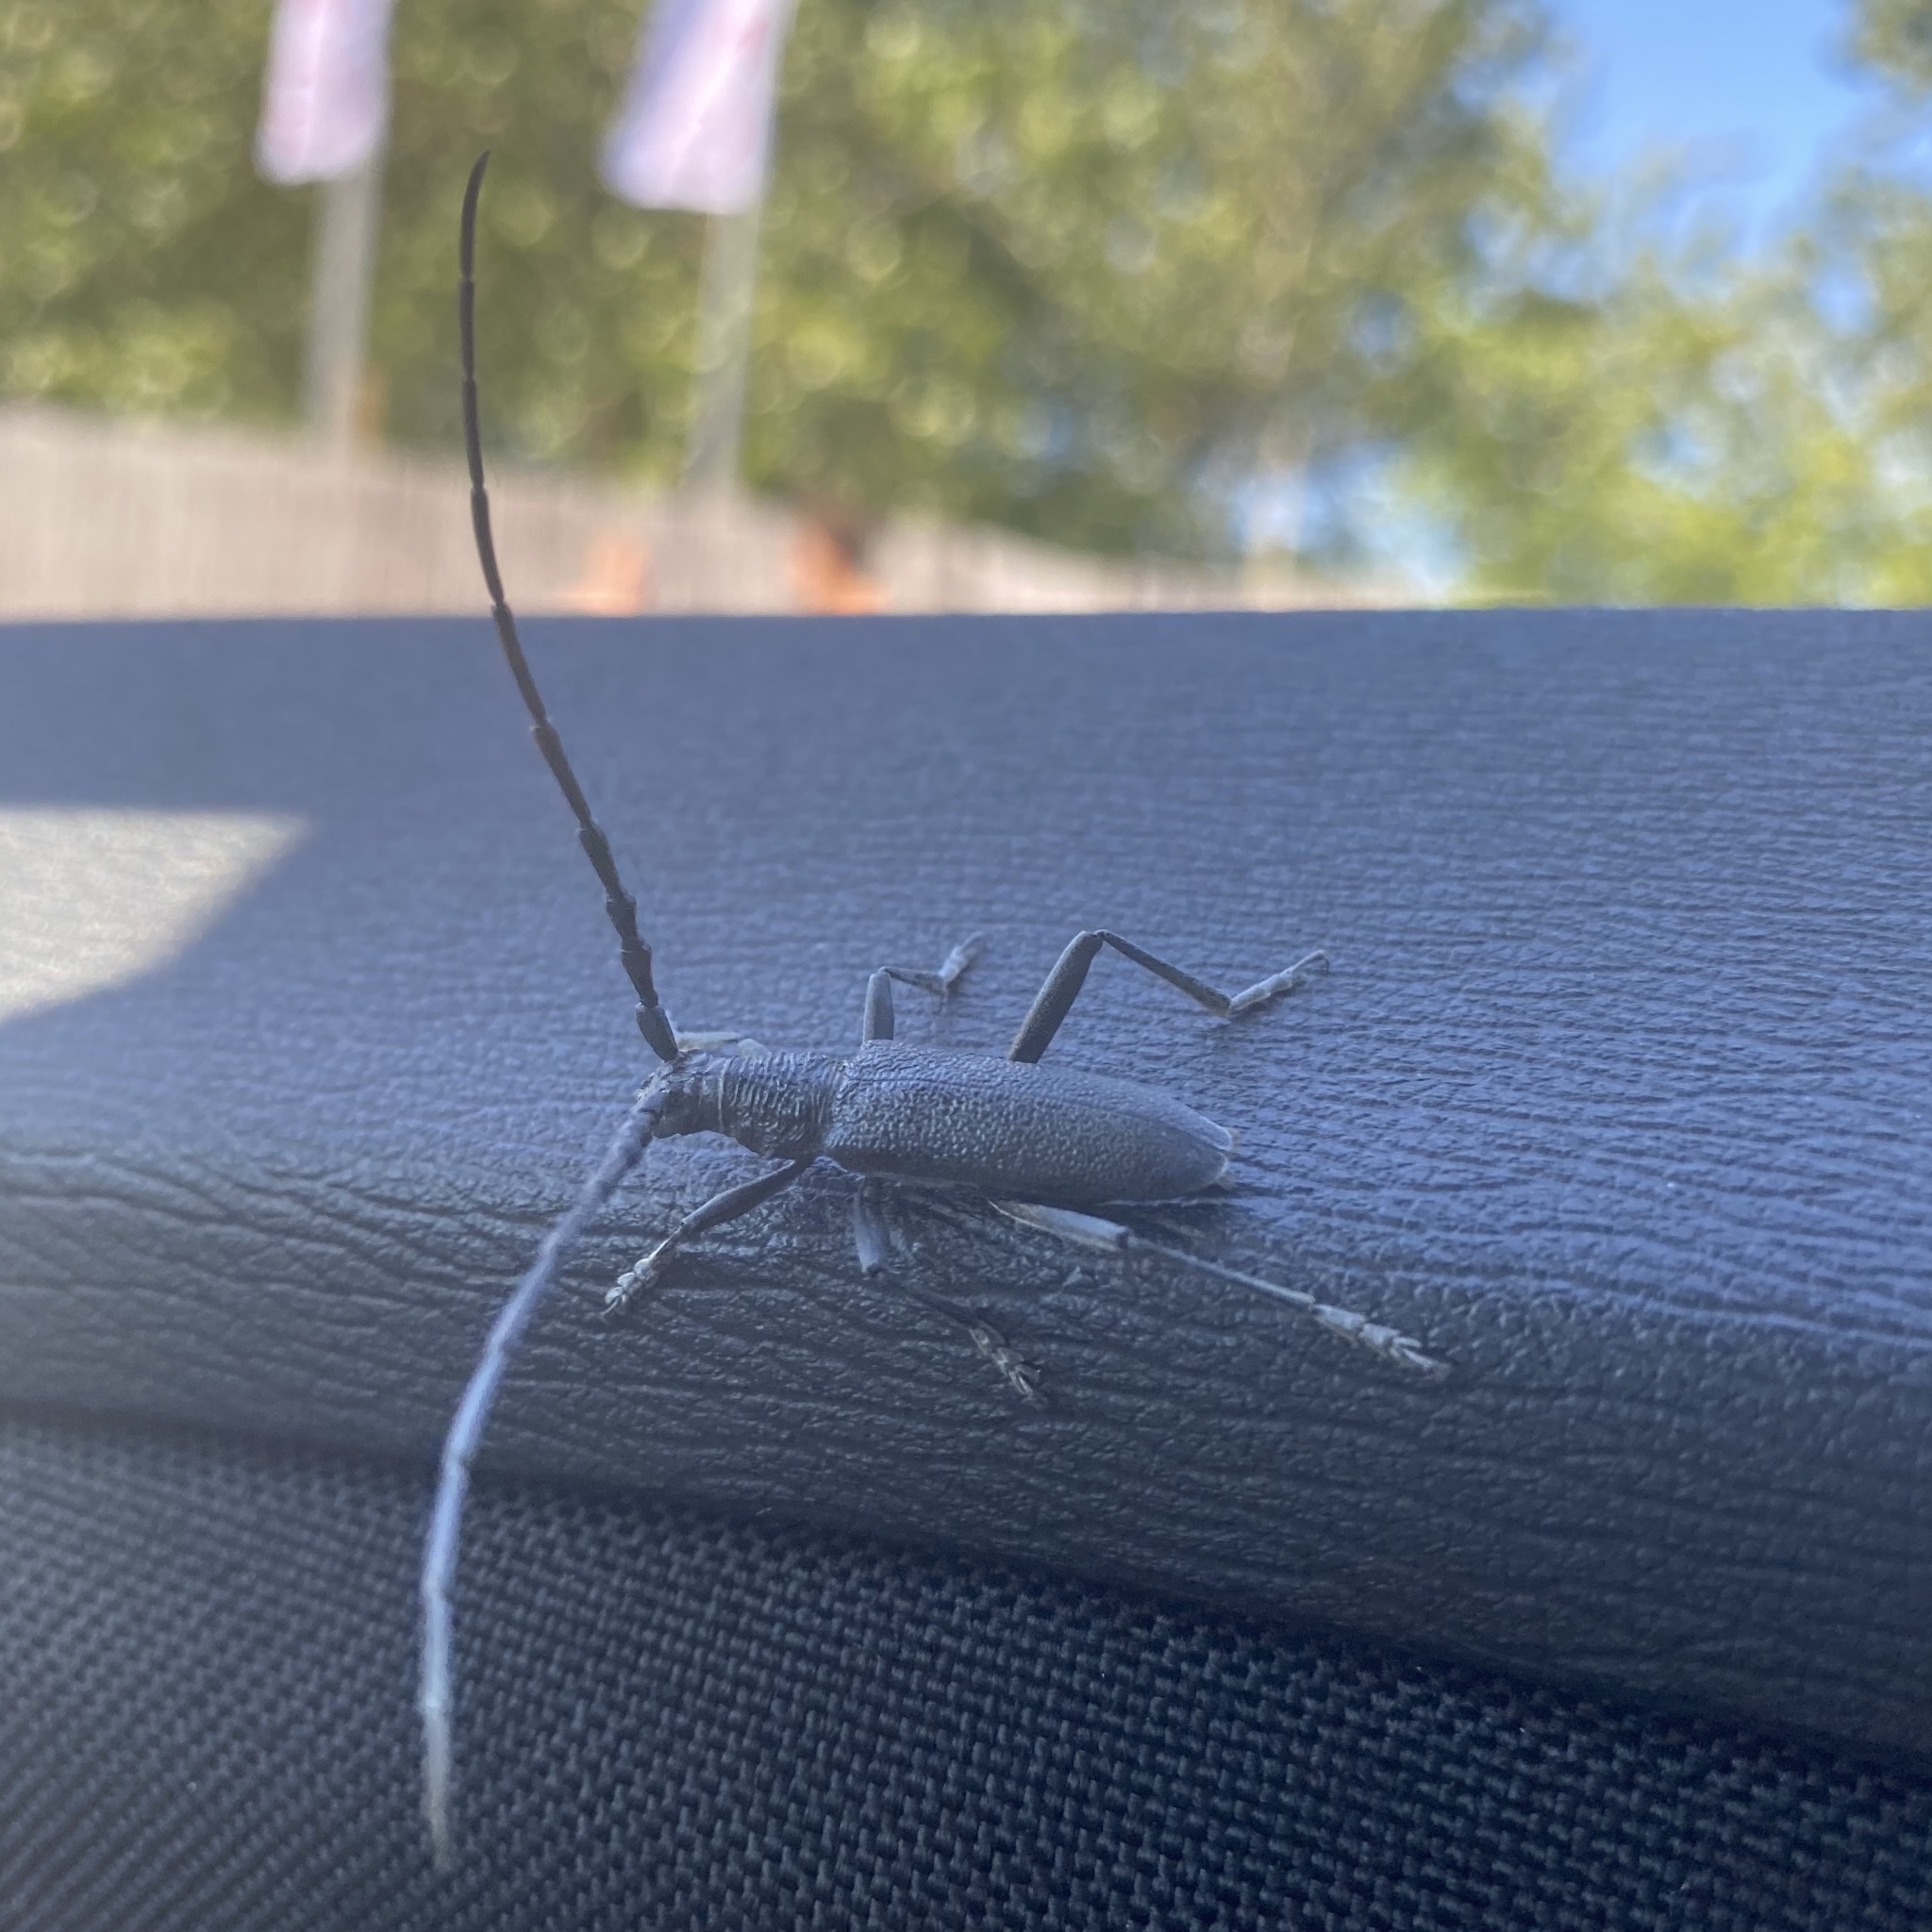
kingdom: Animalia
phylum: Arthropoda
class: Insecta
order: Coleoptera
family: Cerambycidae
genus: Cerambyx
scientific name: Cerambyx scopolii
